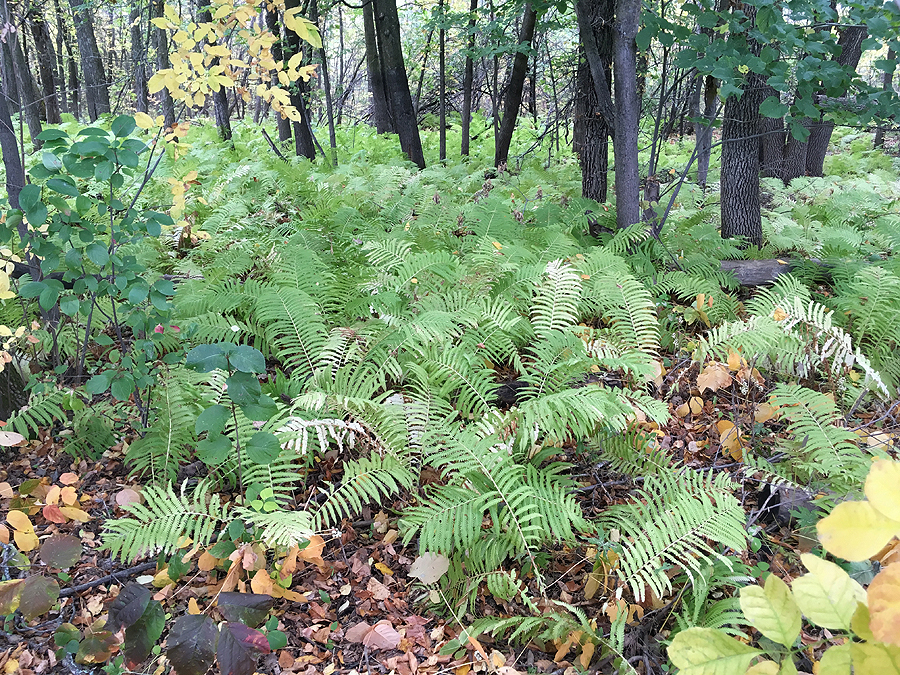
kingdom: Plantae
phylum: Tracheophyta
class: Polypodiopsida
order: Polypodiales
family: Onocleaceae
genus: Matteuccia
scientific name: Matteuccia struthiopteris
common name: Ostrich fern
